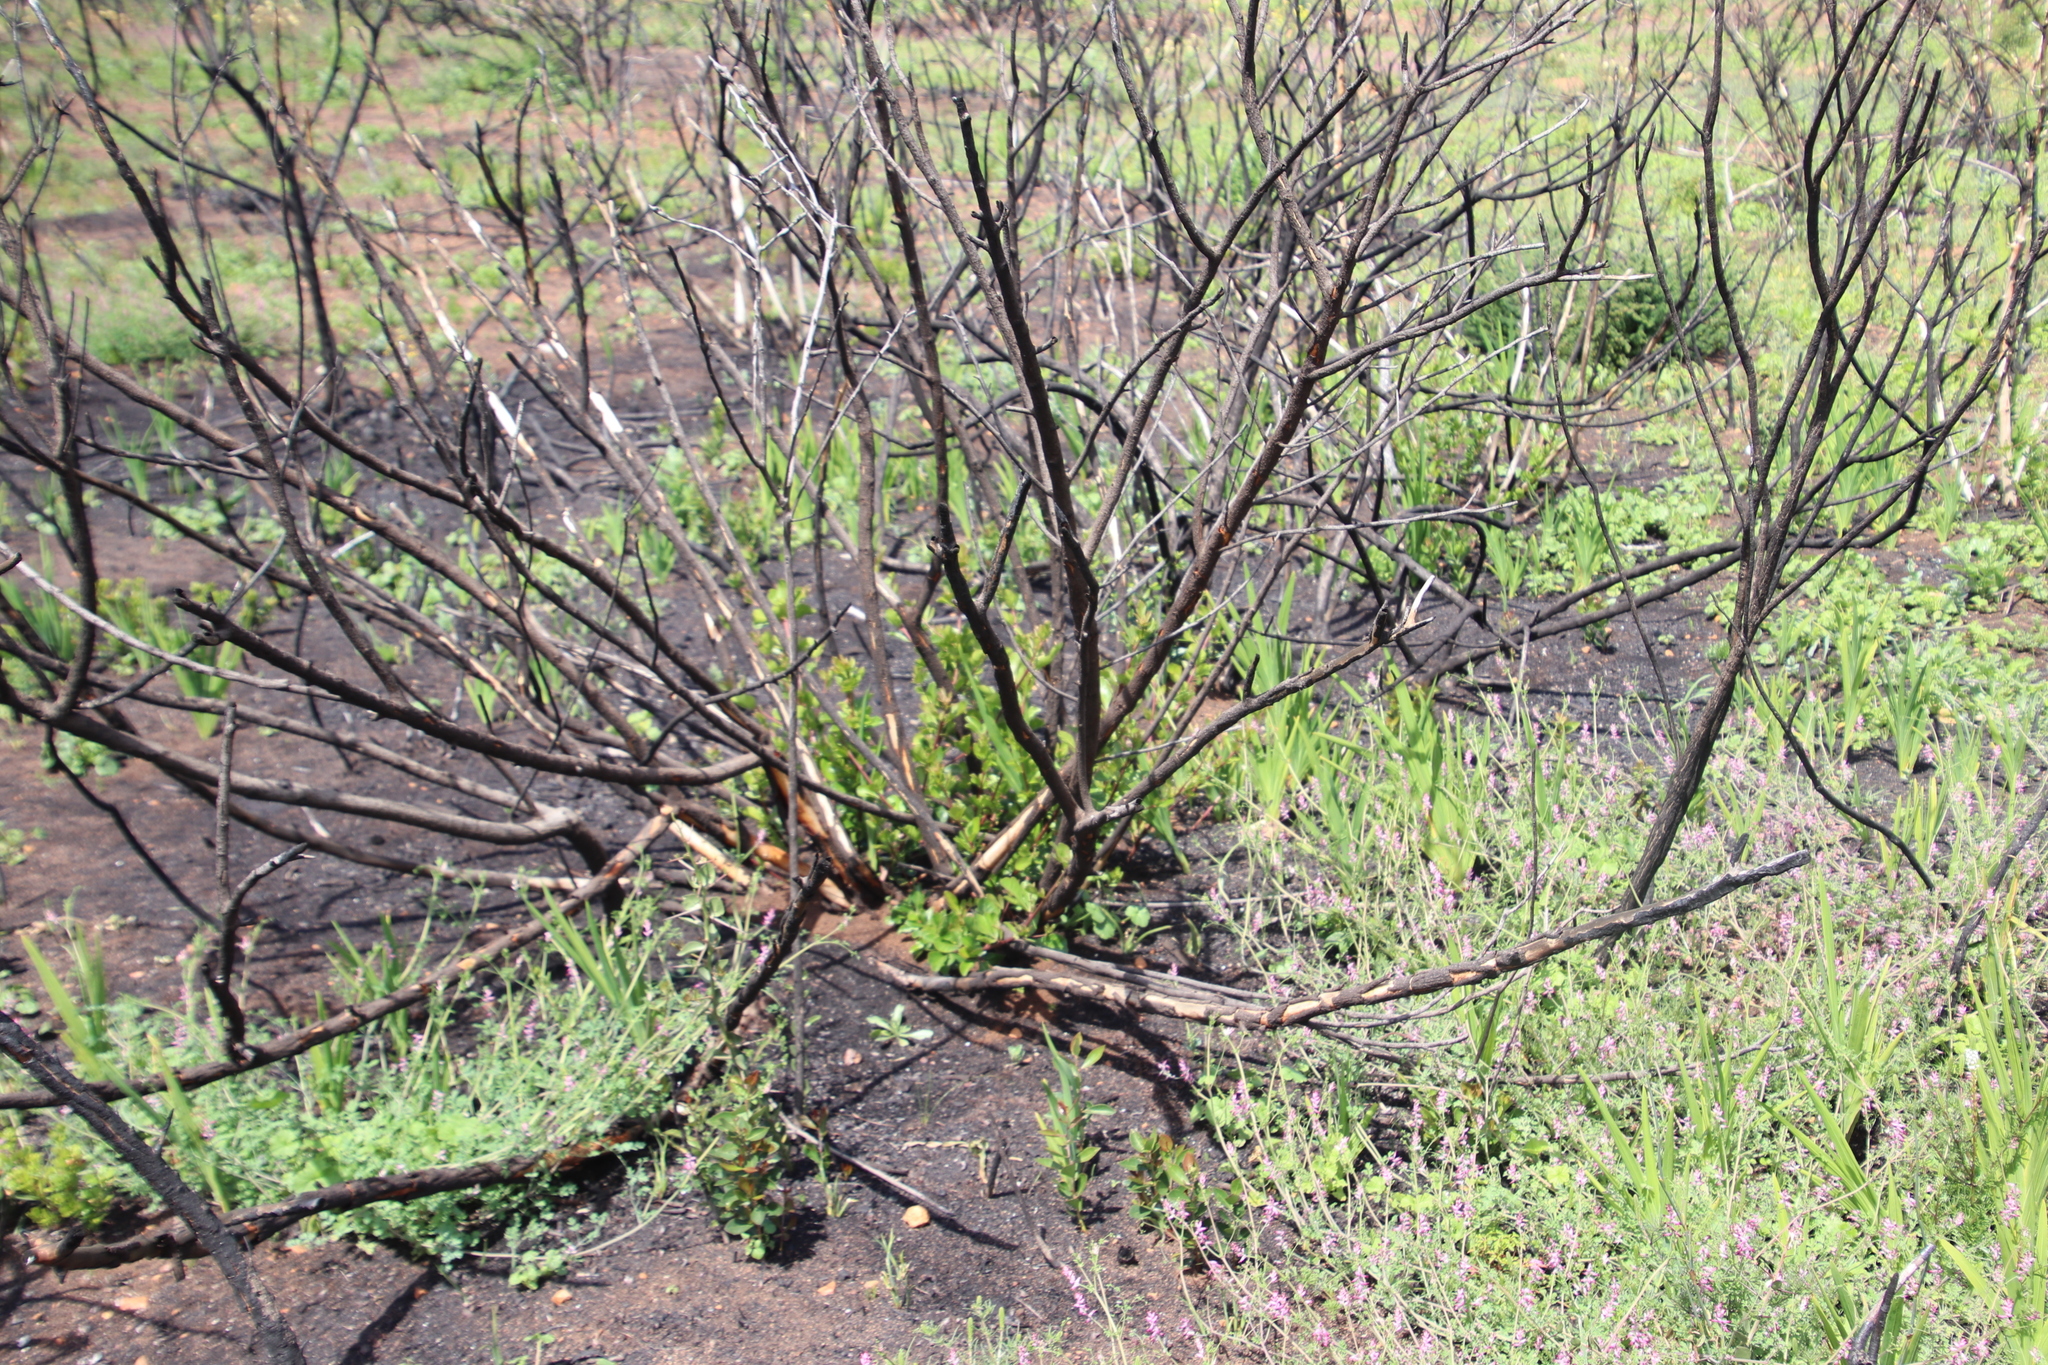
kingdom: Plantae
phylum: Tracheophyta
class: Magnoliopsida
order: Sapindales
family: Anacardiaceae
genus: Searsia
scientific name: Searsia lucida
